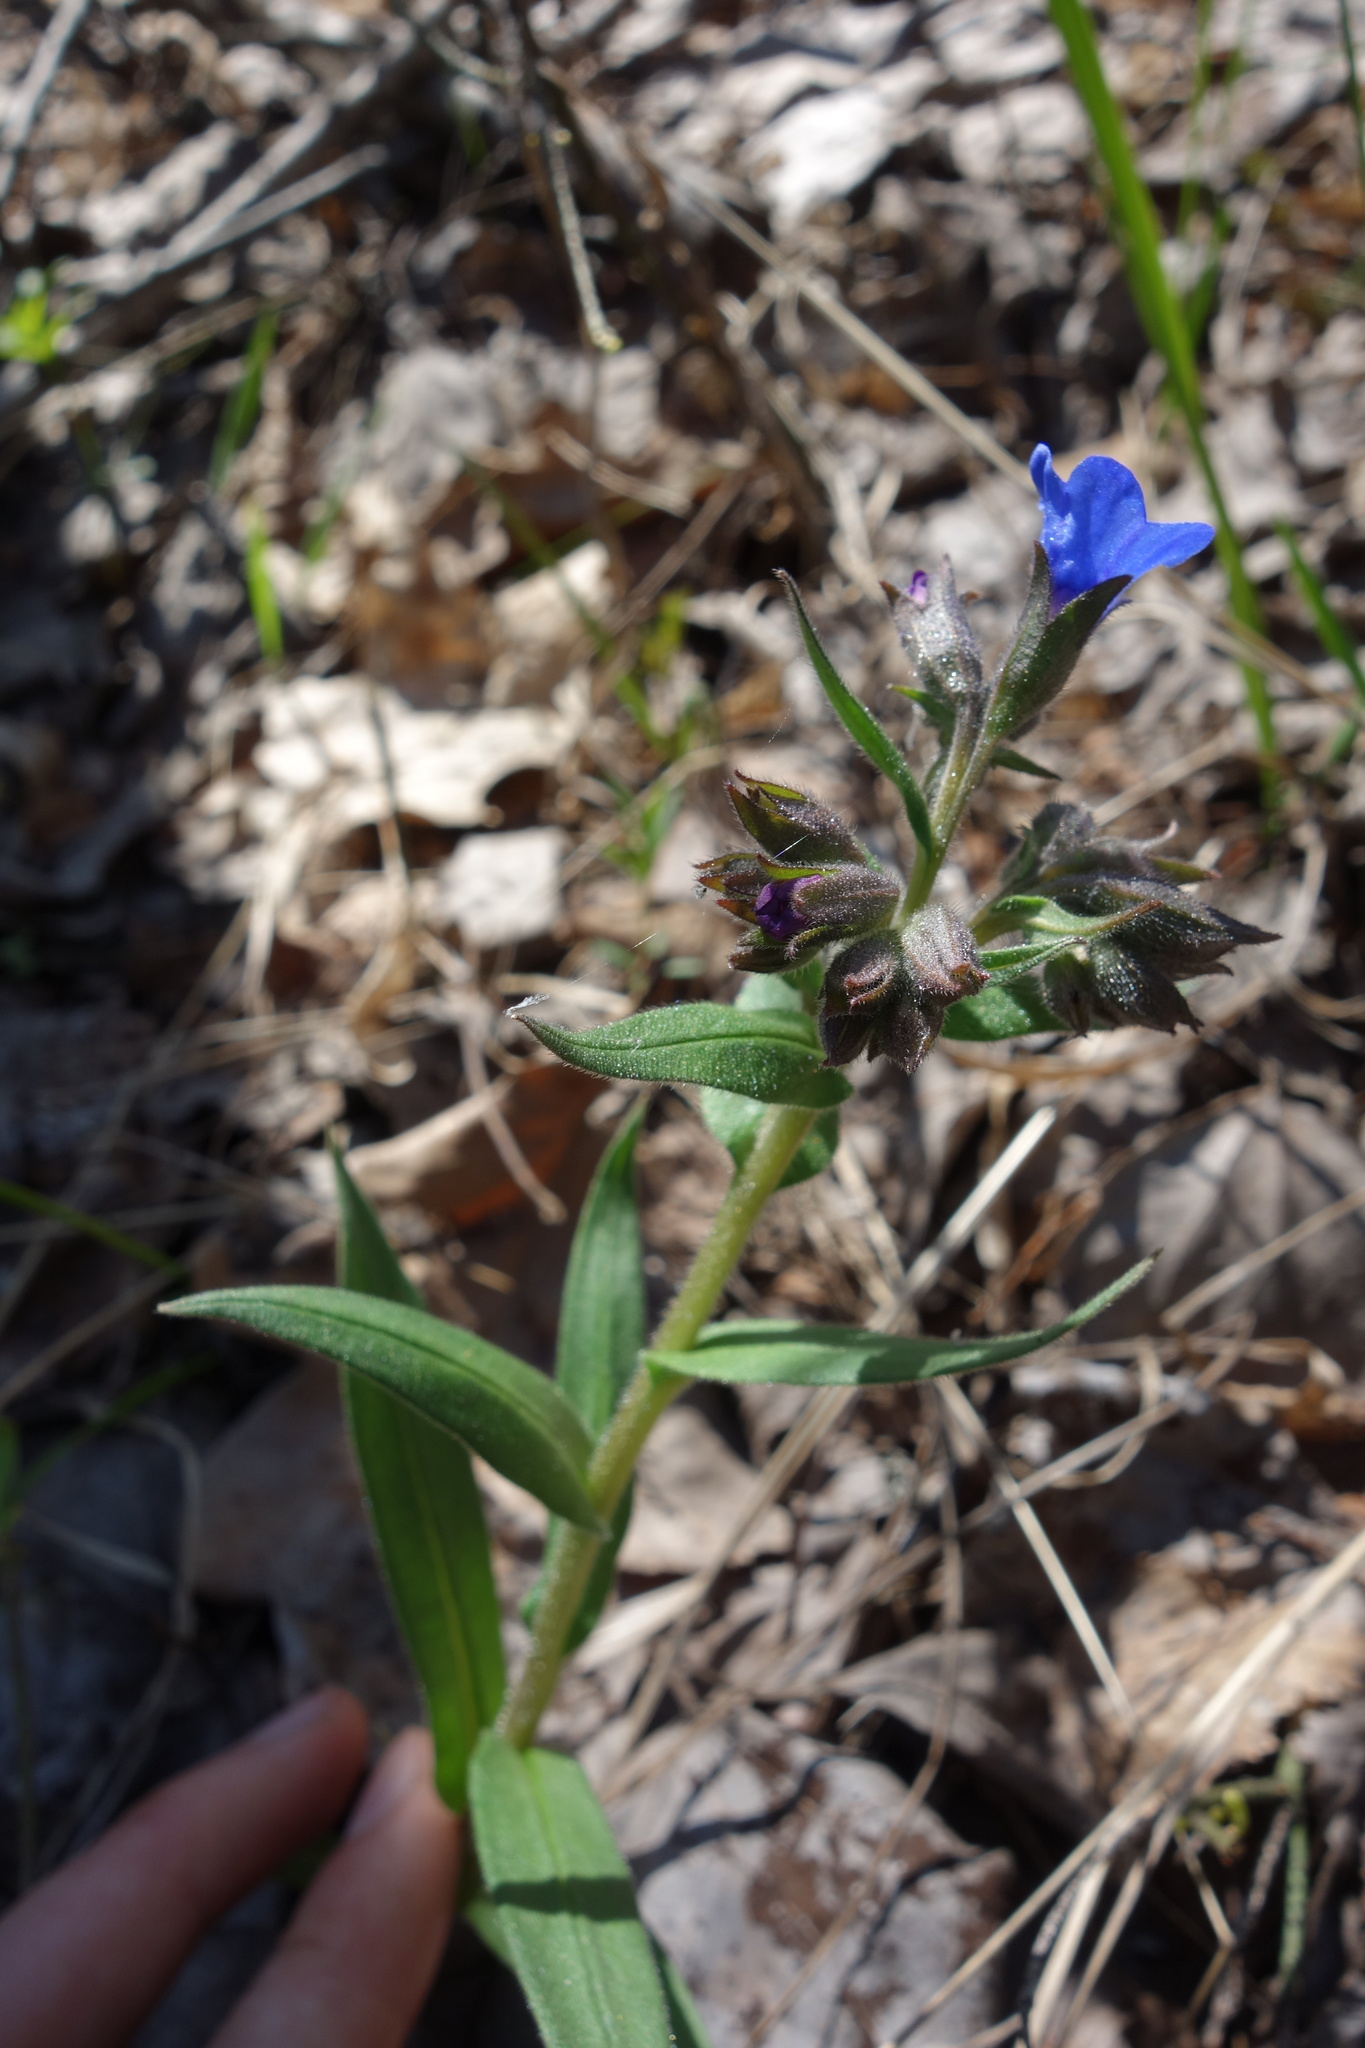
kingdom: Plantae
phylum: Tracheophyta
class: Magnoliopsida
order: Boraginales
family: Boraginaceae
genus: Pulmonaria
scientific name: Pulmonaria angustifolia
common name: Blue cowslip
